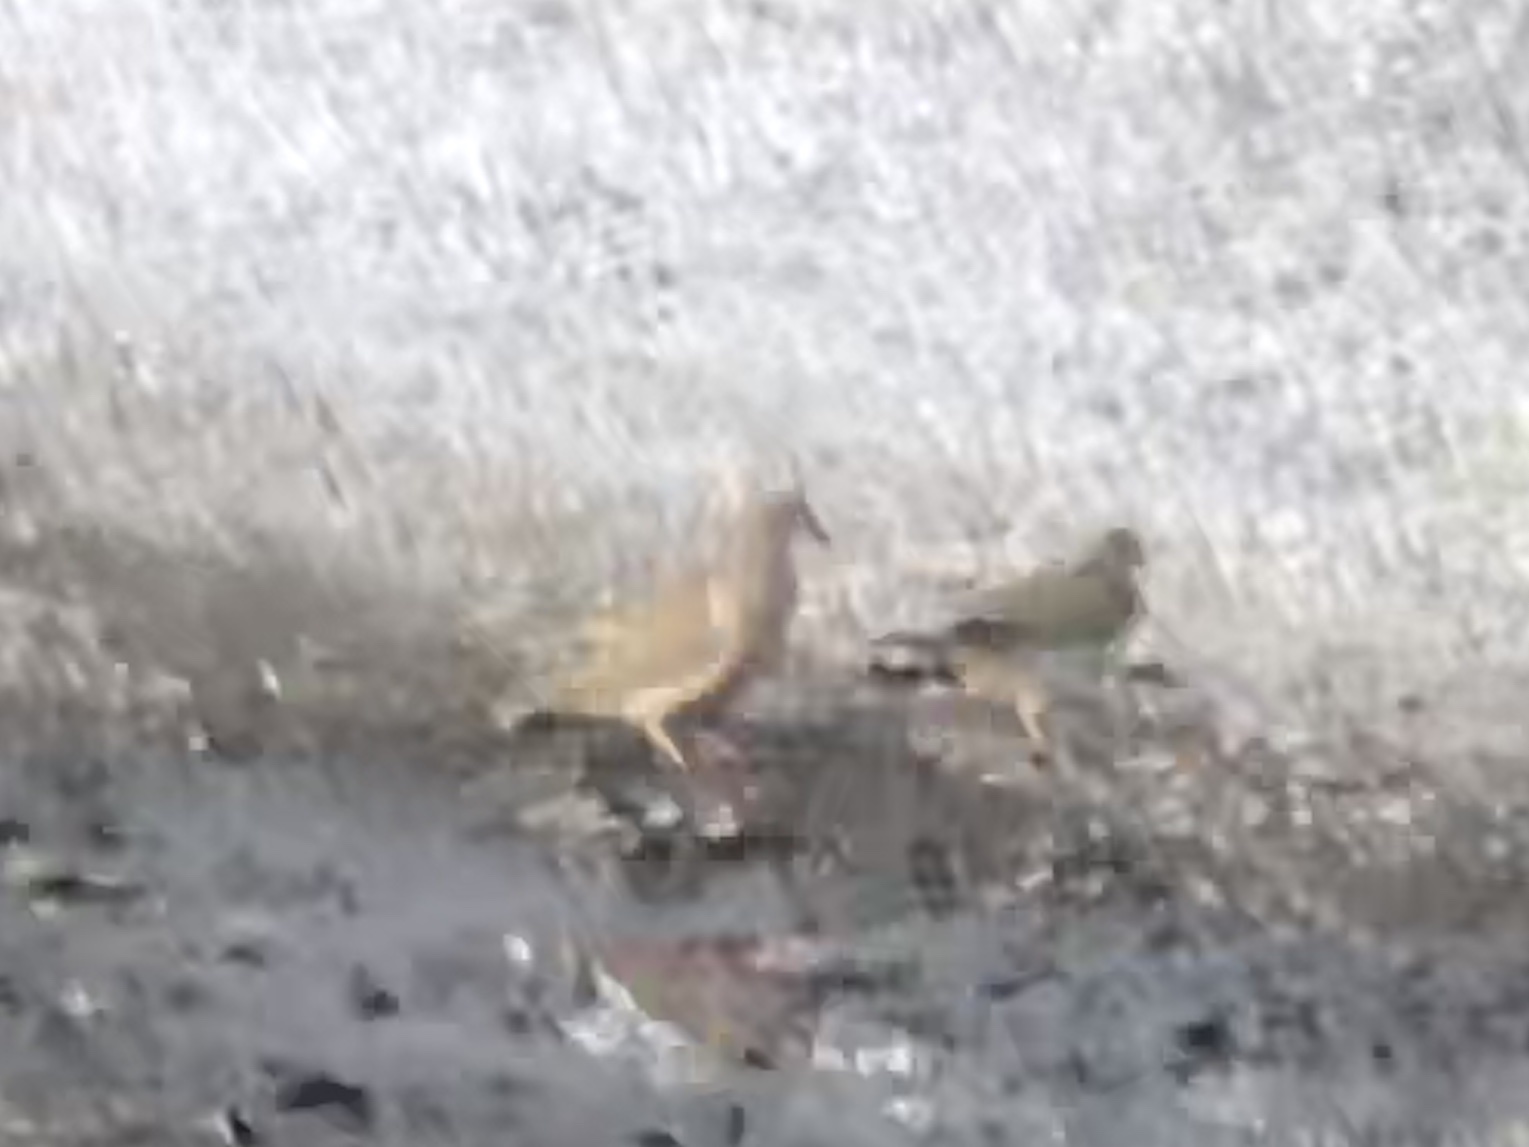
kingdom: Animalia
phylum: Chordata
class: Aves
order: Columbiformes
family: Columbidae
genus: Zenaida
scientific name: Zenaida macroura
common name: Mourning dove
